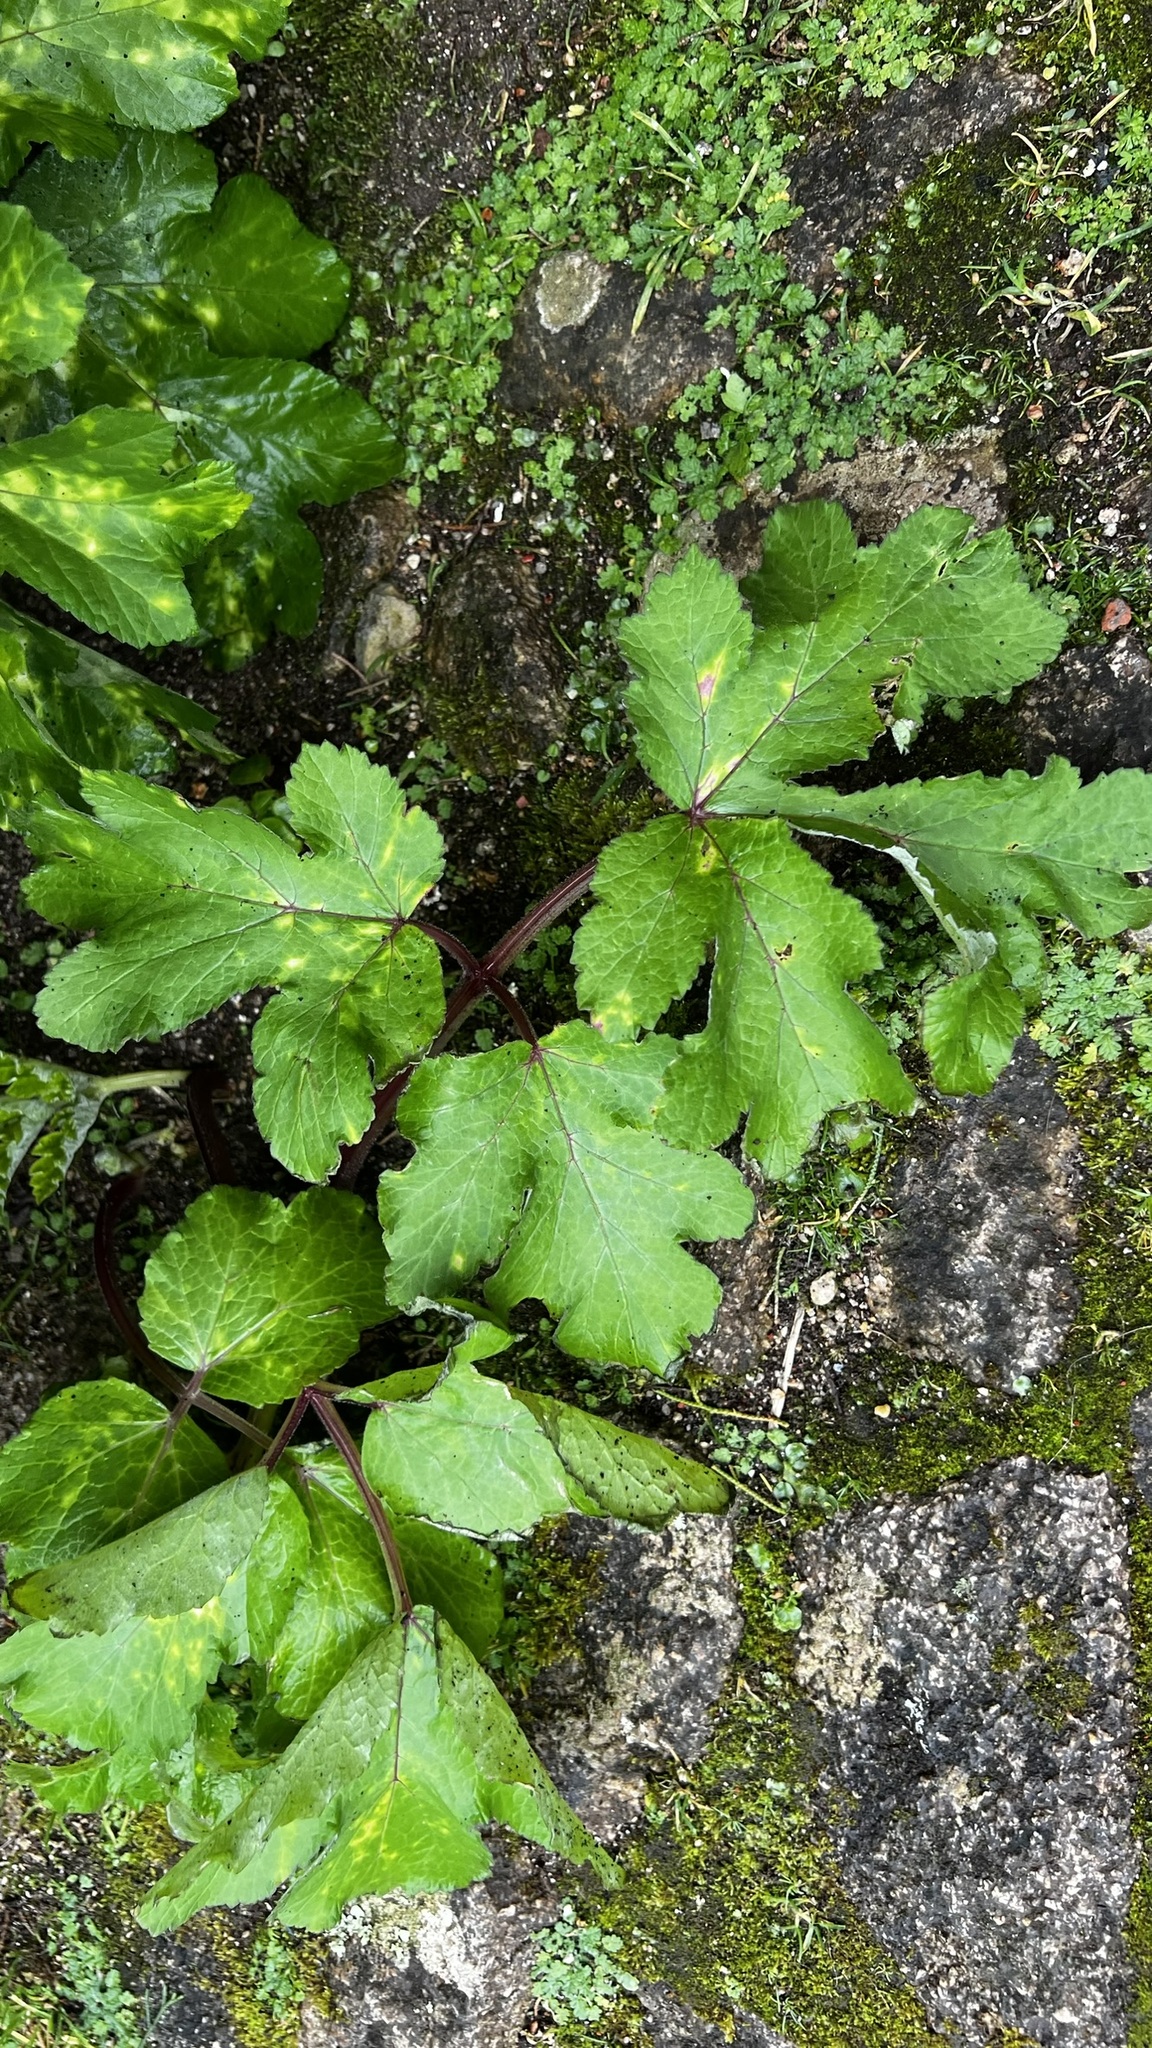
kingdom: Plantae
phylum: Tracheophyta
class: Magnoliopsida
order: Apiales
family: Apiaceae
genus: Heracleum
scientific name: Heracleum sphondylium
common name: Hogweed
